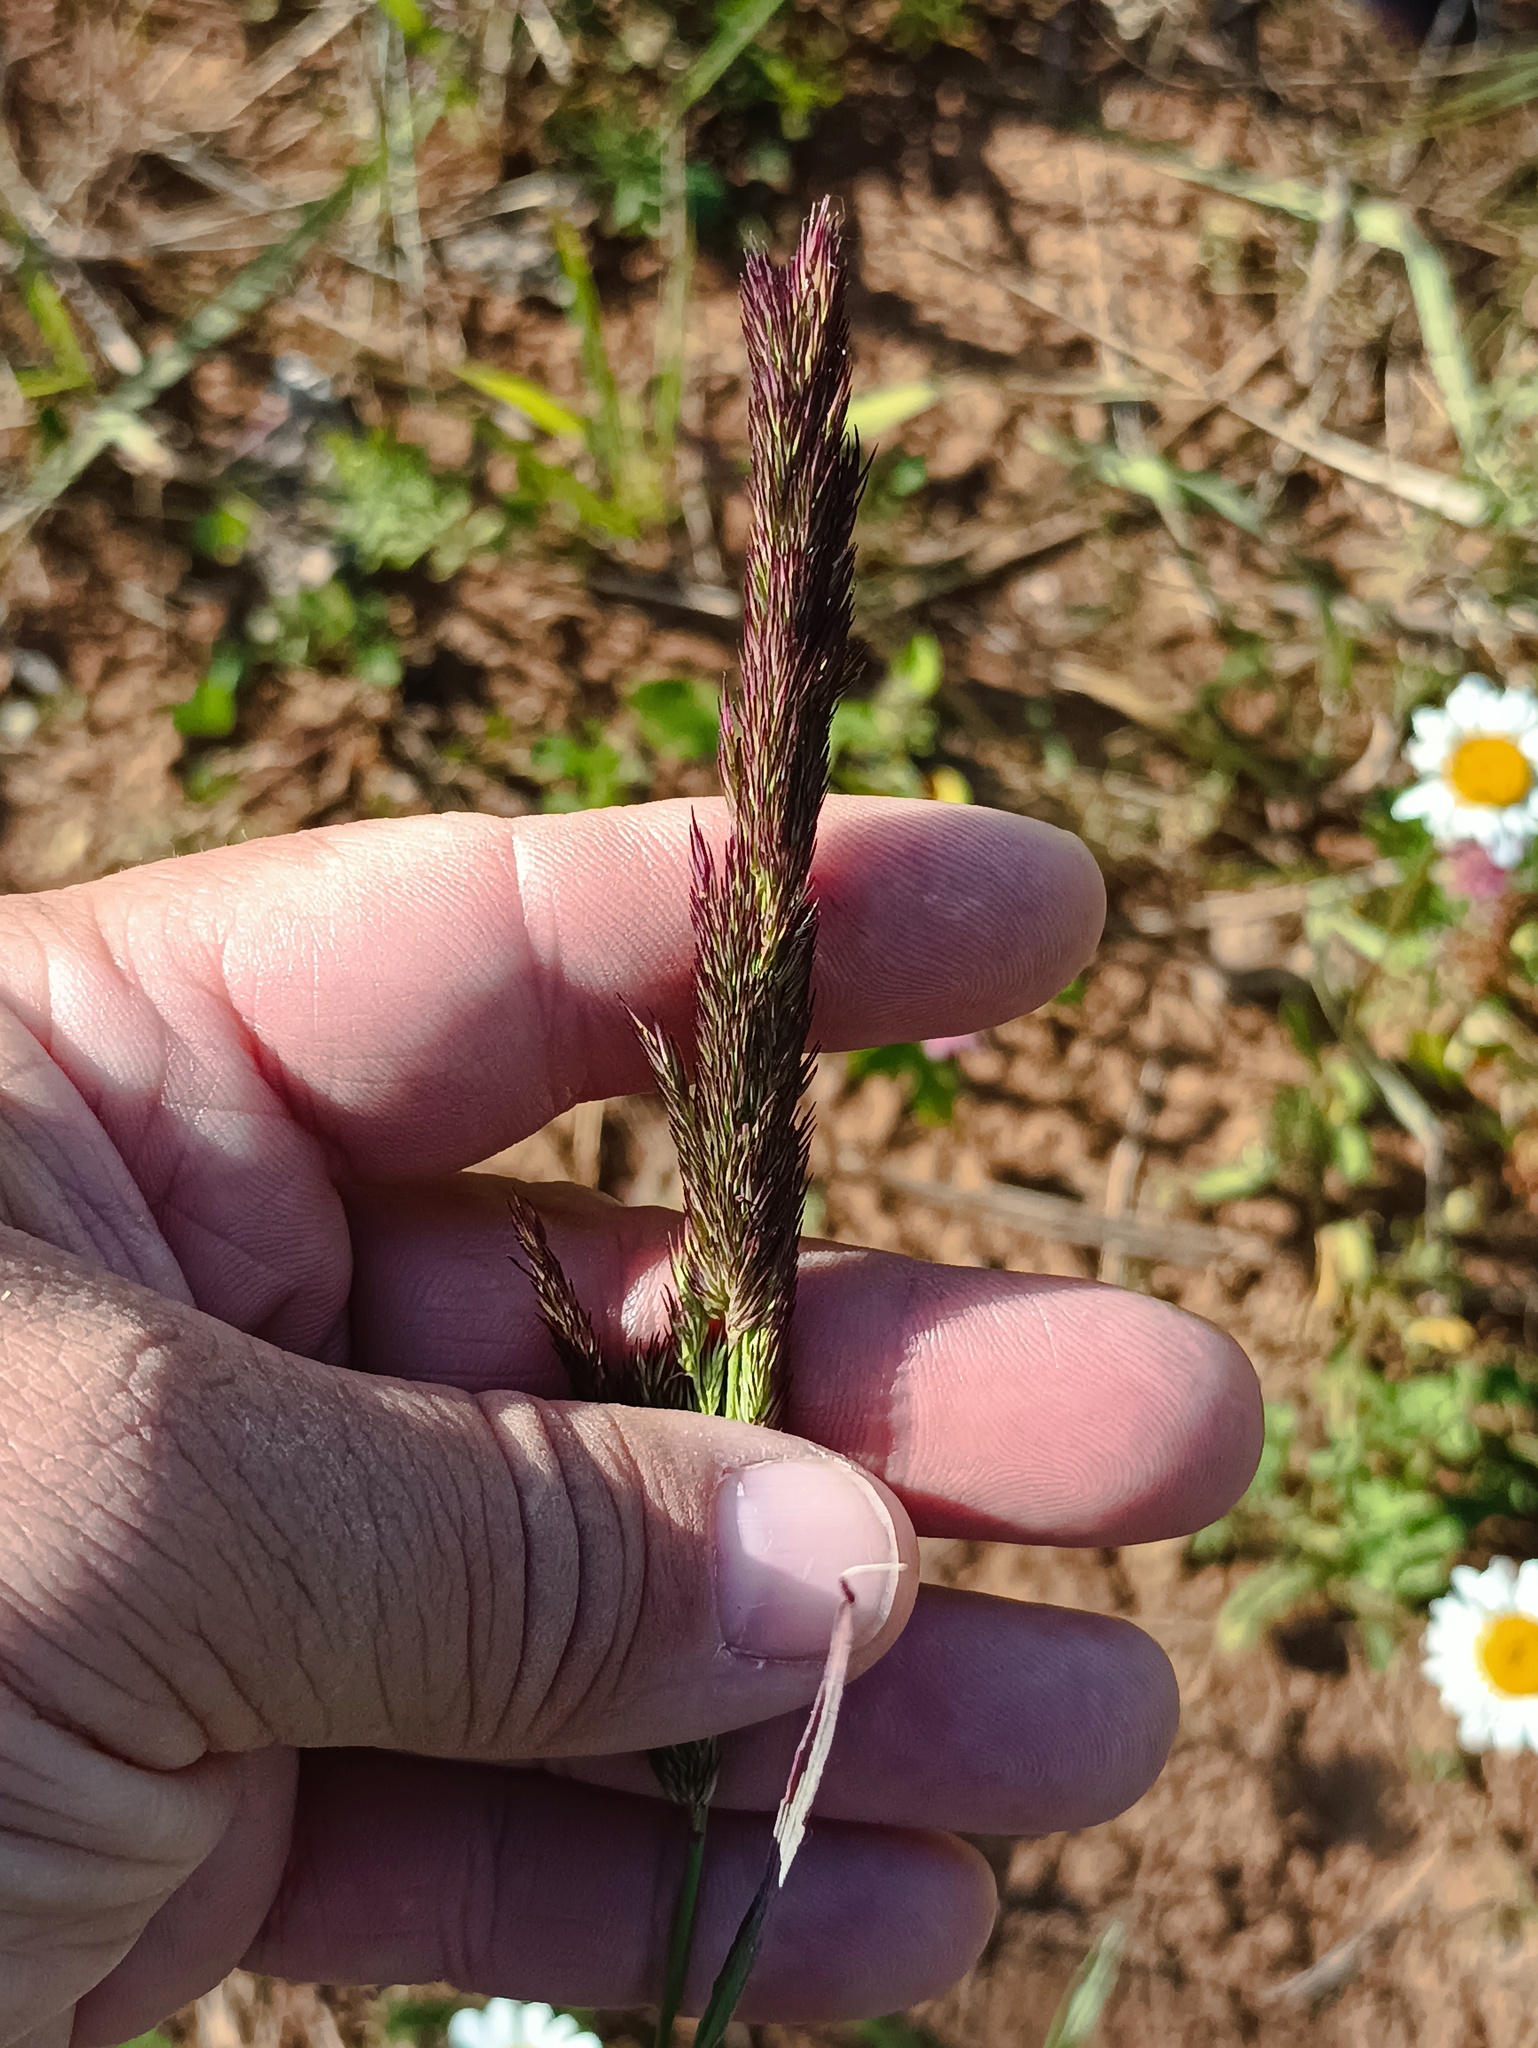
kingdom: Plantae
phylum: Tracheophyta
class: Liliopsida
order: Poales
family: Poaceae
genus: Calamagrostis
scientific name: Calamagrostis epigejos
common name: Wood small-reed
